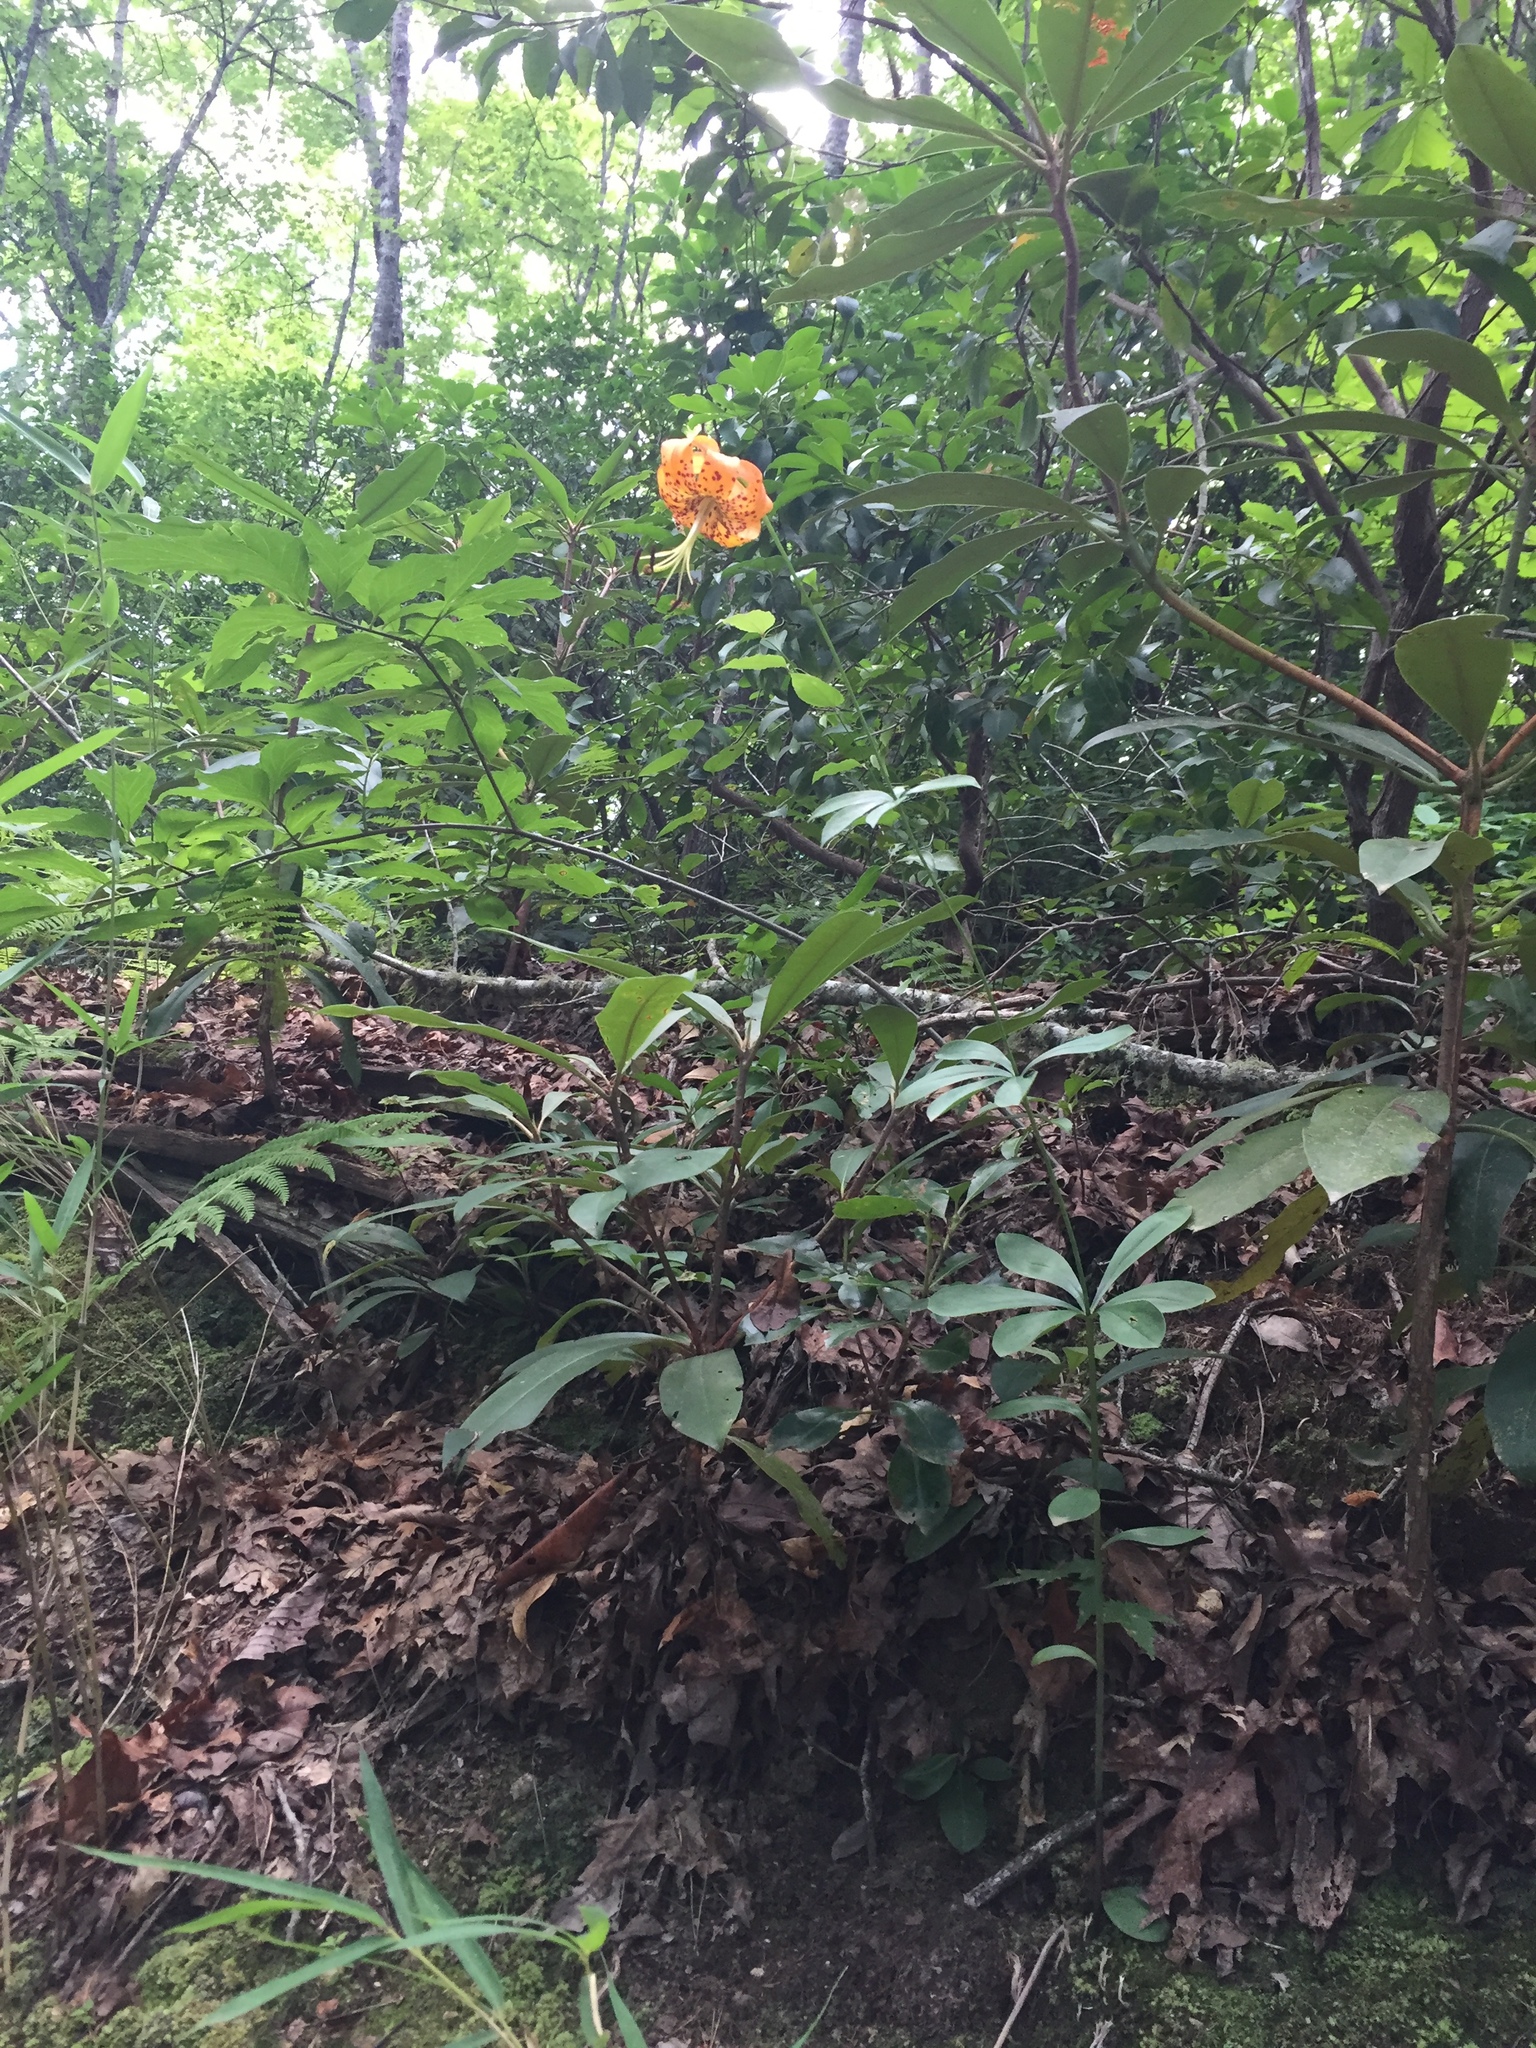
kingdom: Plantae
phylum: Tracheophyta
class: Liliopsida
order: Liliales
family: Liliaceae
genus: Lilium
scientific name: Lilium michauxii
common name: Carolina lily
